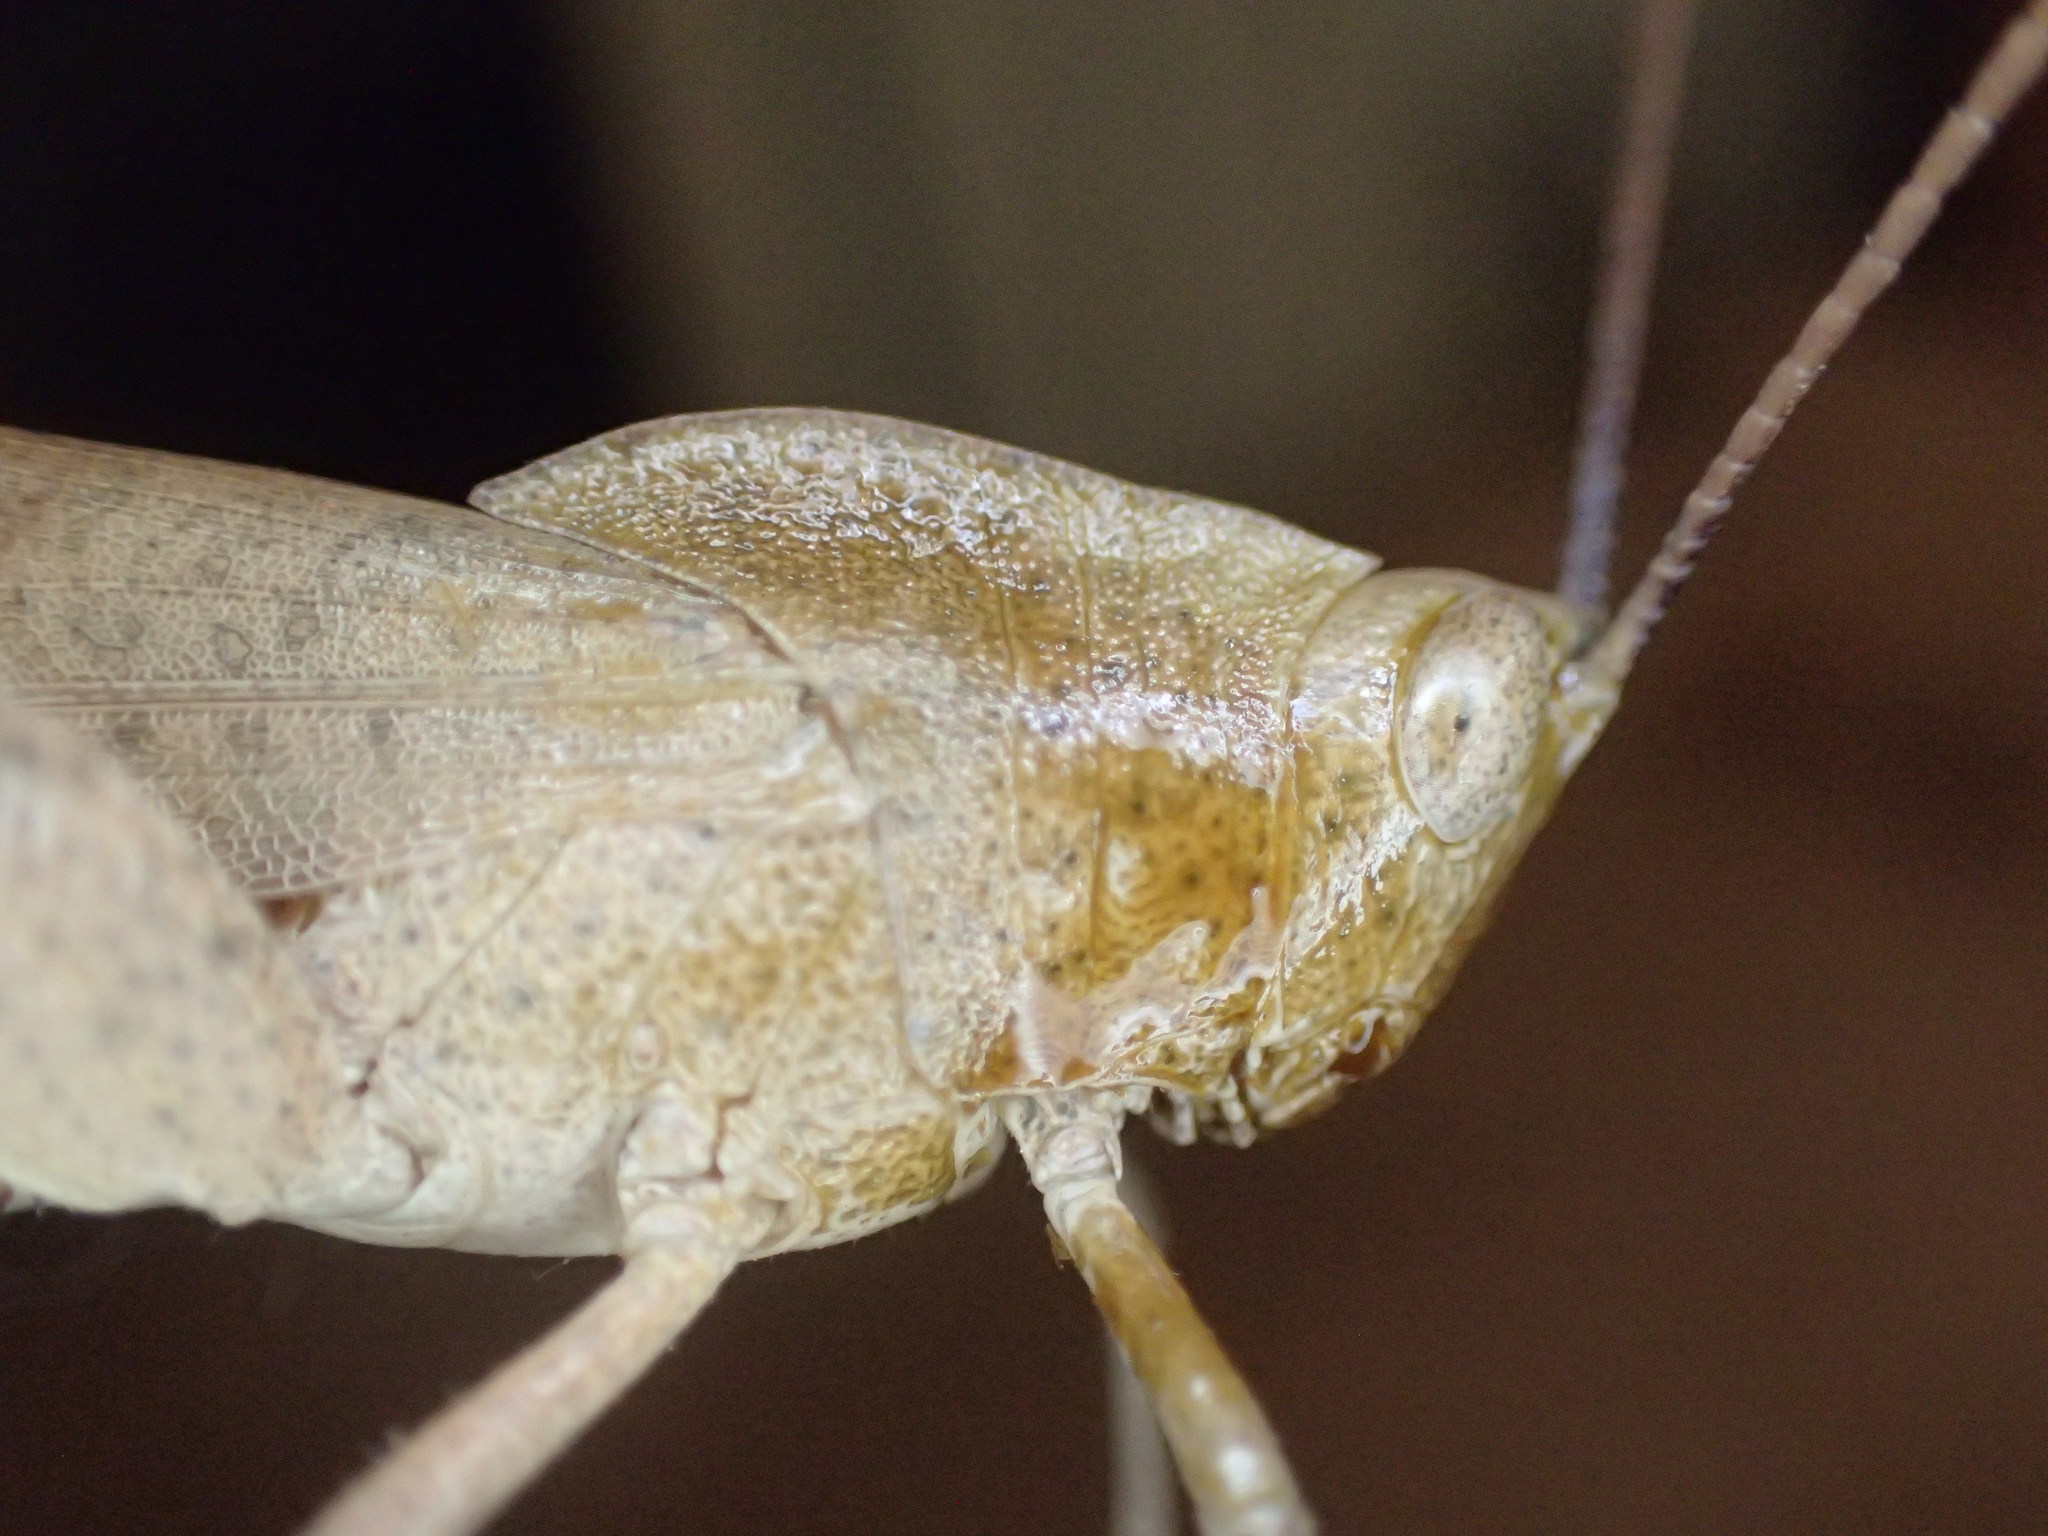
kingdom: Animalia
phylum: Arthropoda
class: Insecta
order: Orthoptera
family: Acrididae
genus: Goniaea
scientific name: Goniaea australasiae
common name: Gumleaf grasshopper
